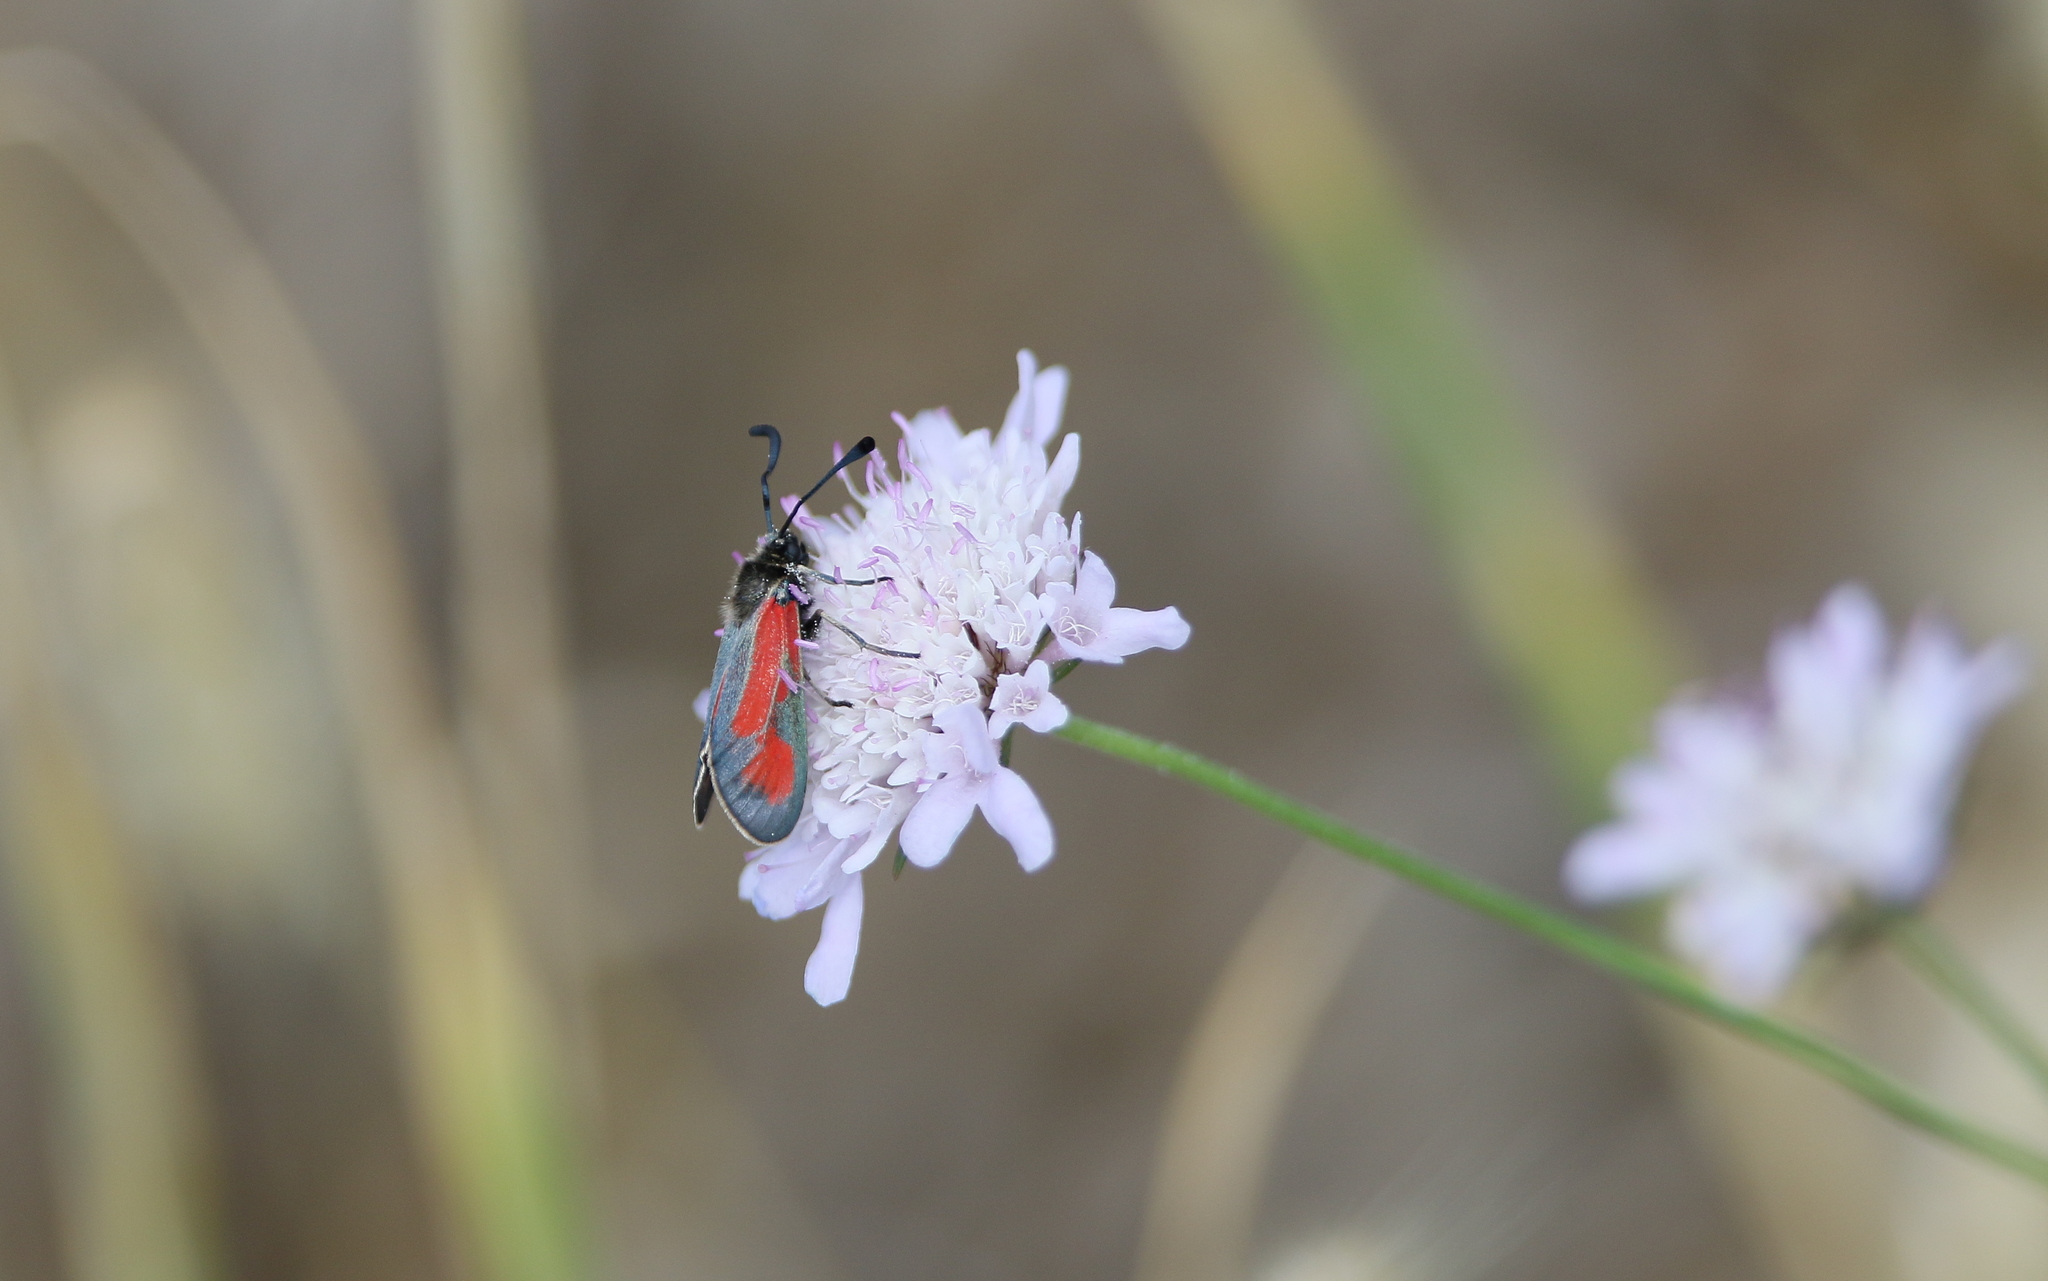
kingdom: Animalia
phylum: Arthropoda
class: Insecta
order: Lepidoptera
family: Zygaenidae
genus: Zygaena
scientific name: Zygaena punctum
